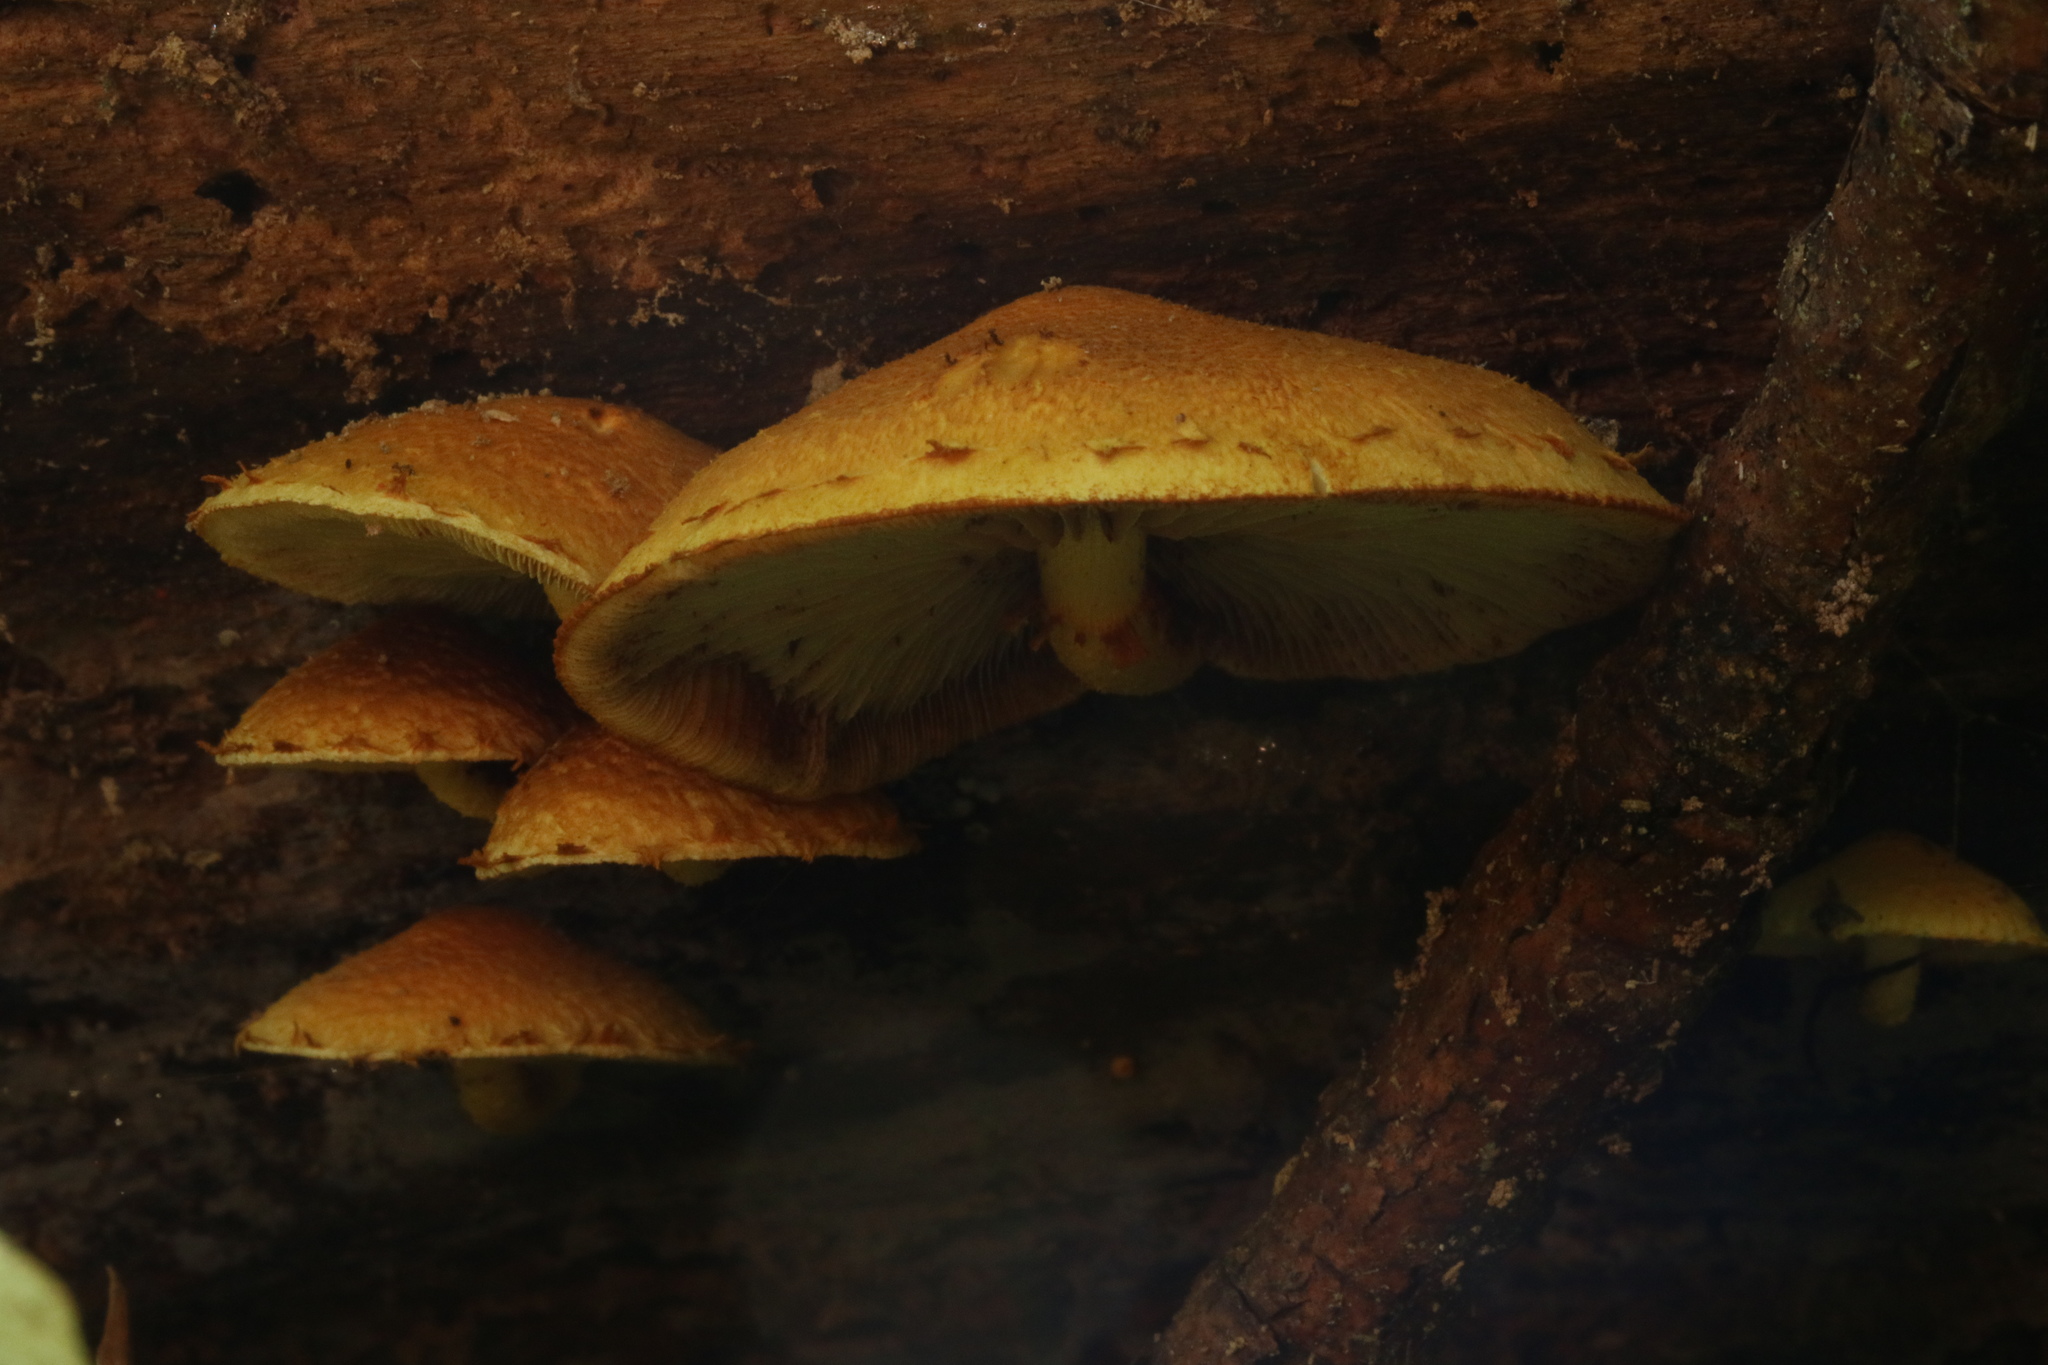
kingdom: Fungi
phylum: Basidiomycota
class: Agaricomycetes
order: Agaricales
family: Crepidotaceae
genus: Pleuroflammula
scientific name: Pleuroflammula multifolia
